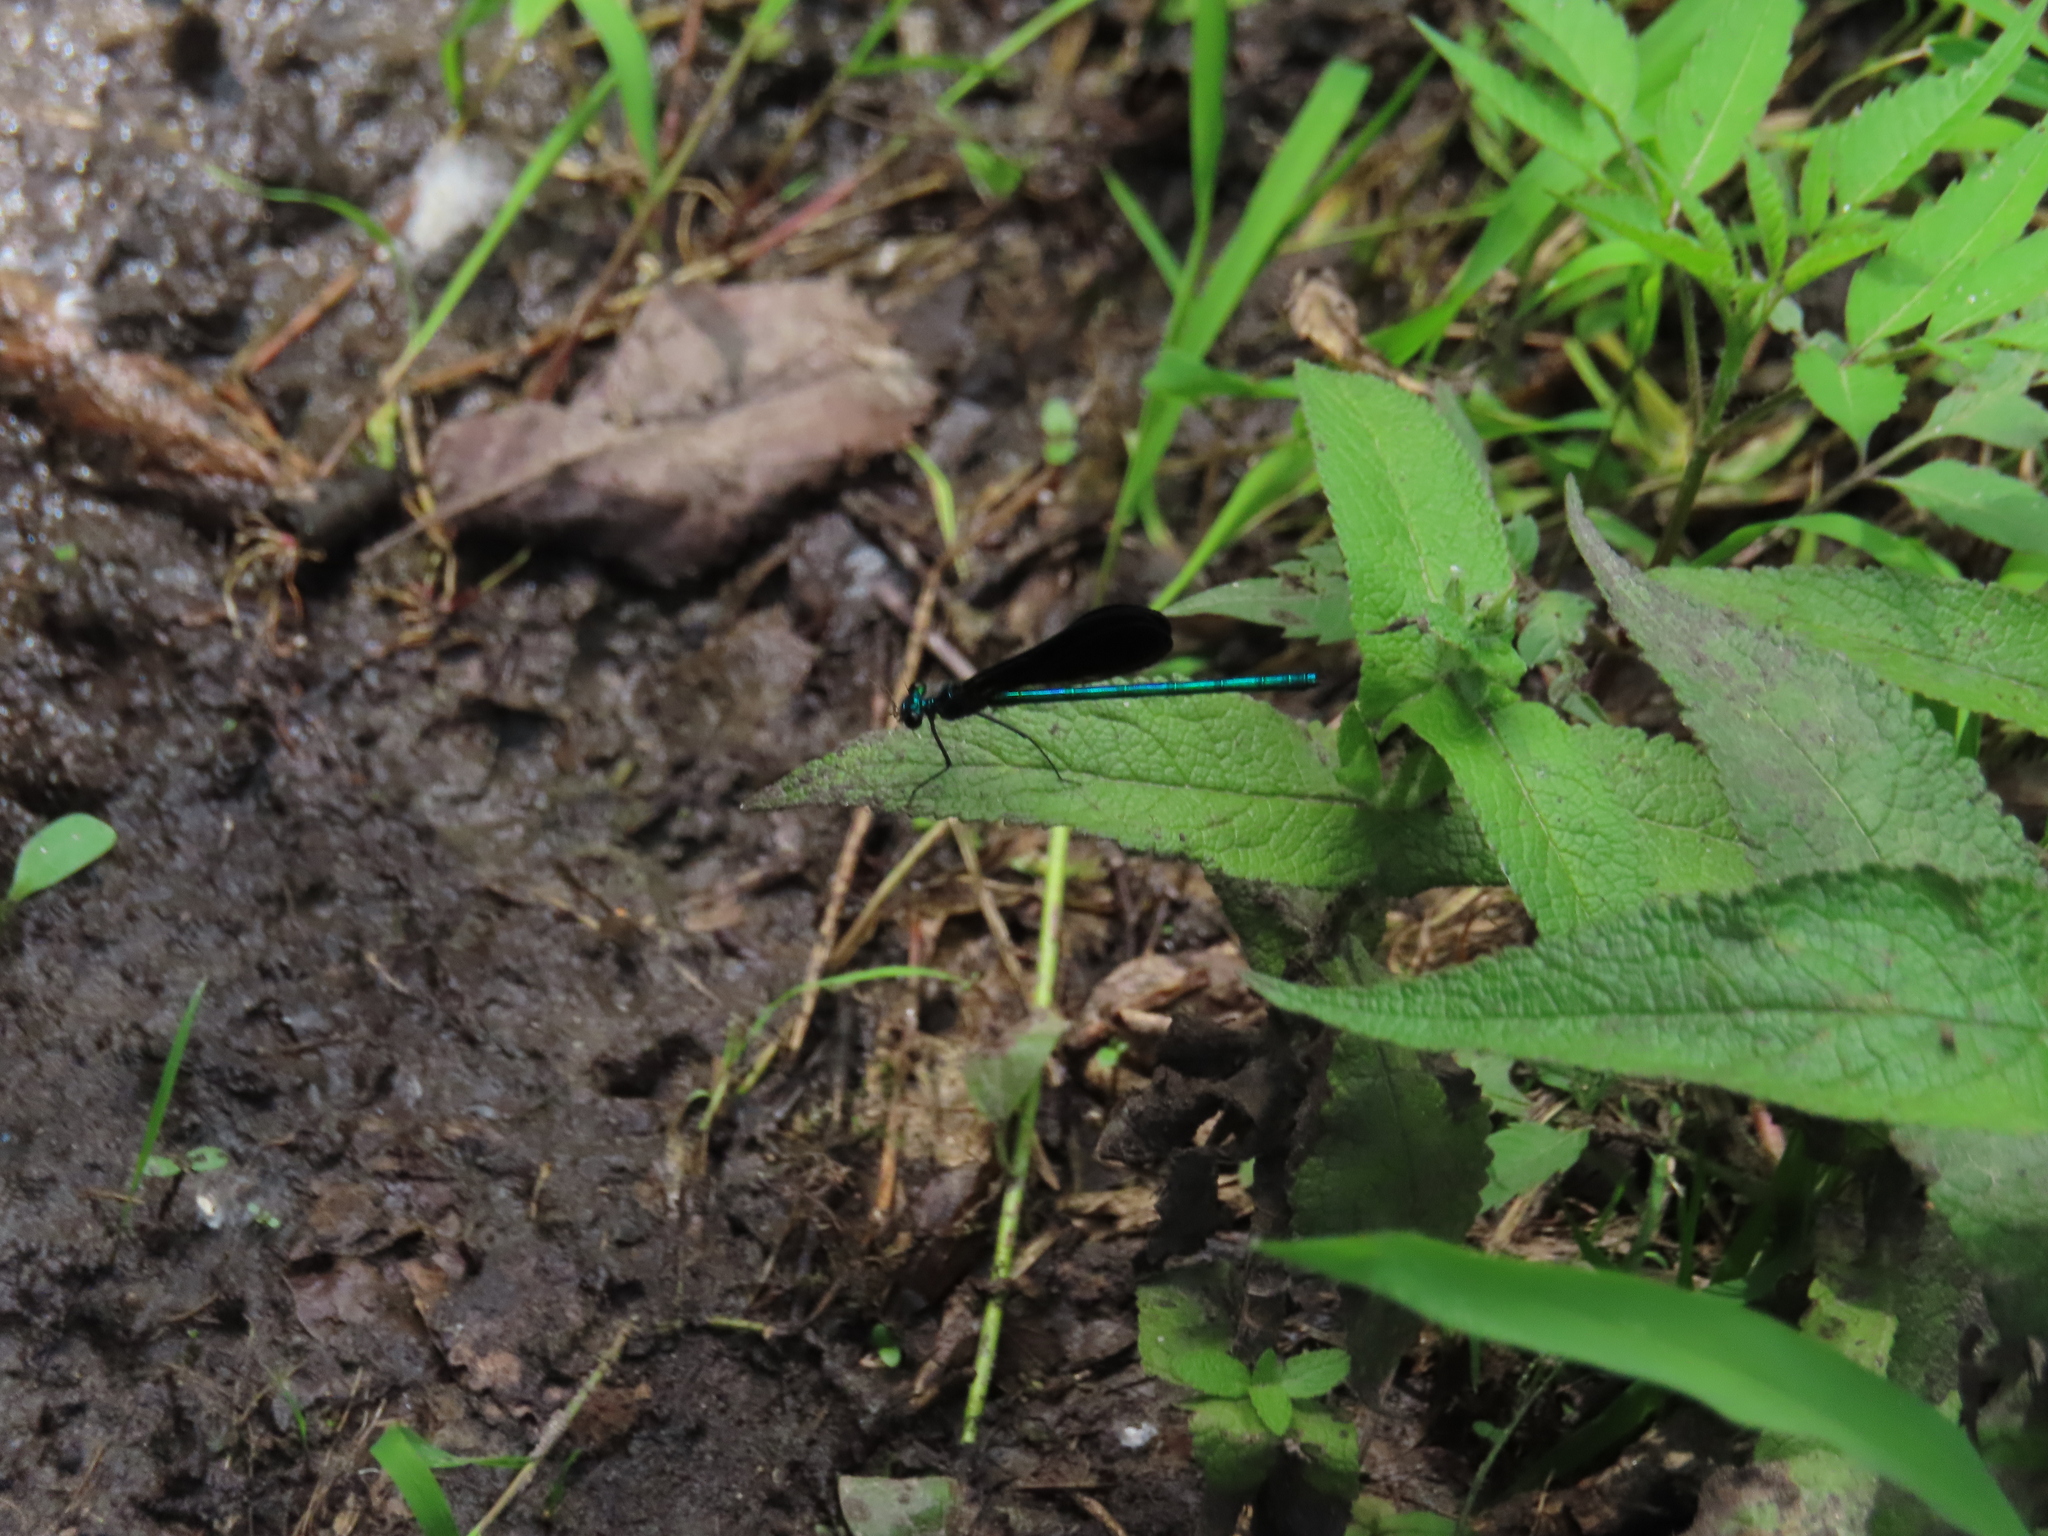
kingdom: Animalia
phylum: Arthropoda
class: Insecta
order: Odonata
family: Calopterygidae
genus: Calopteryx
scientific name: Calopteryx maculata
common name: Ebony jewelwing
